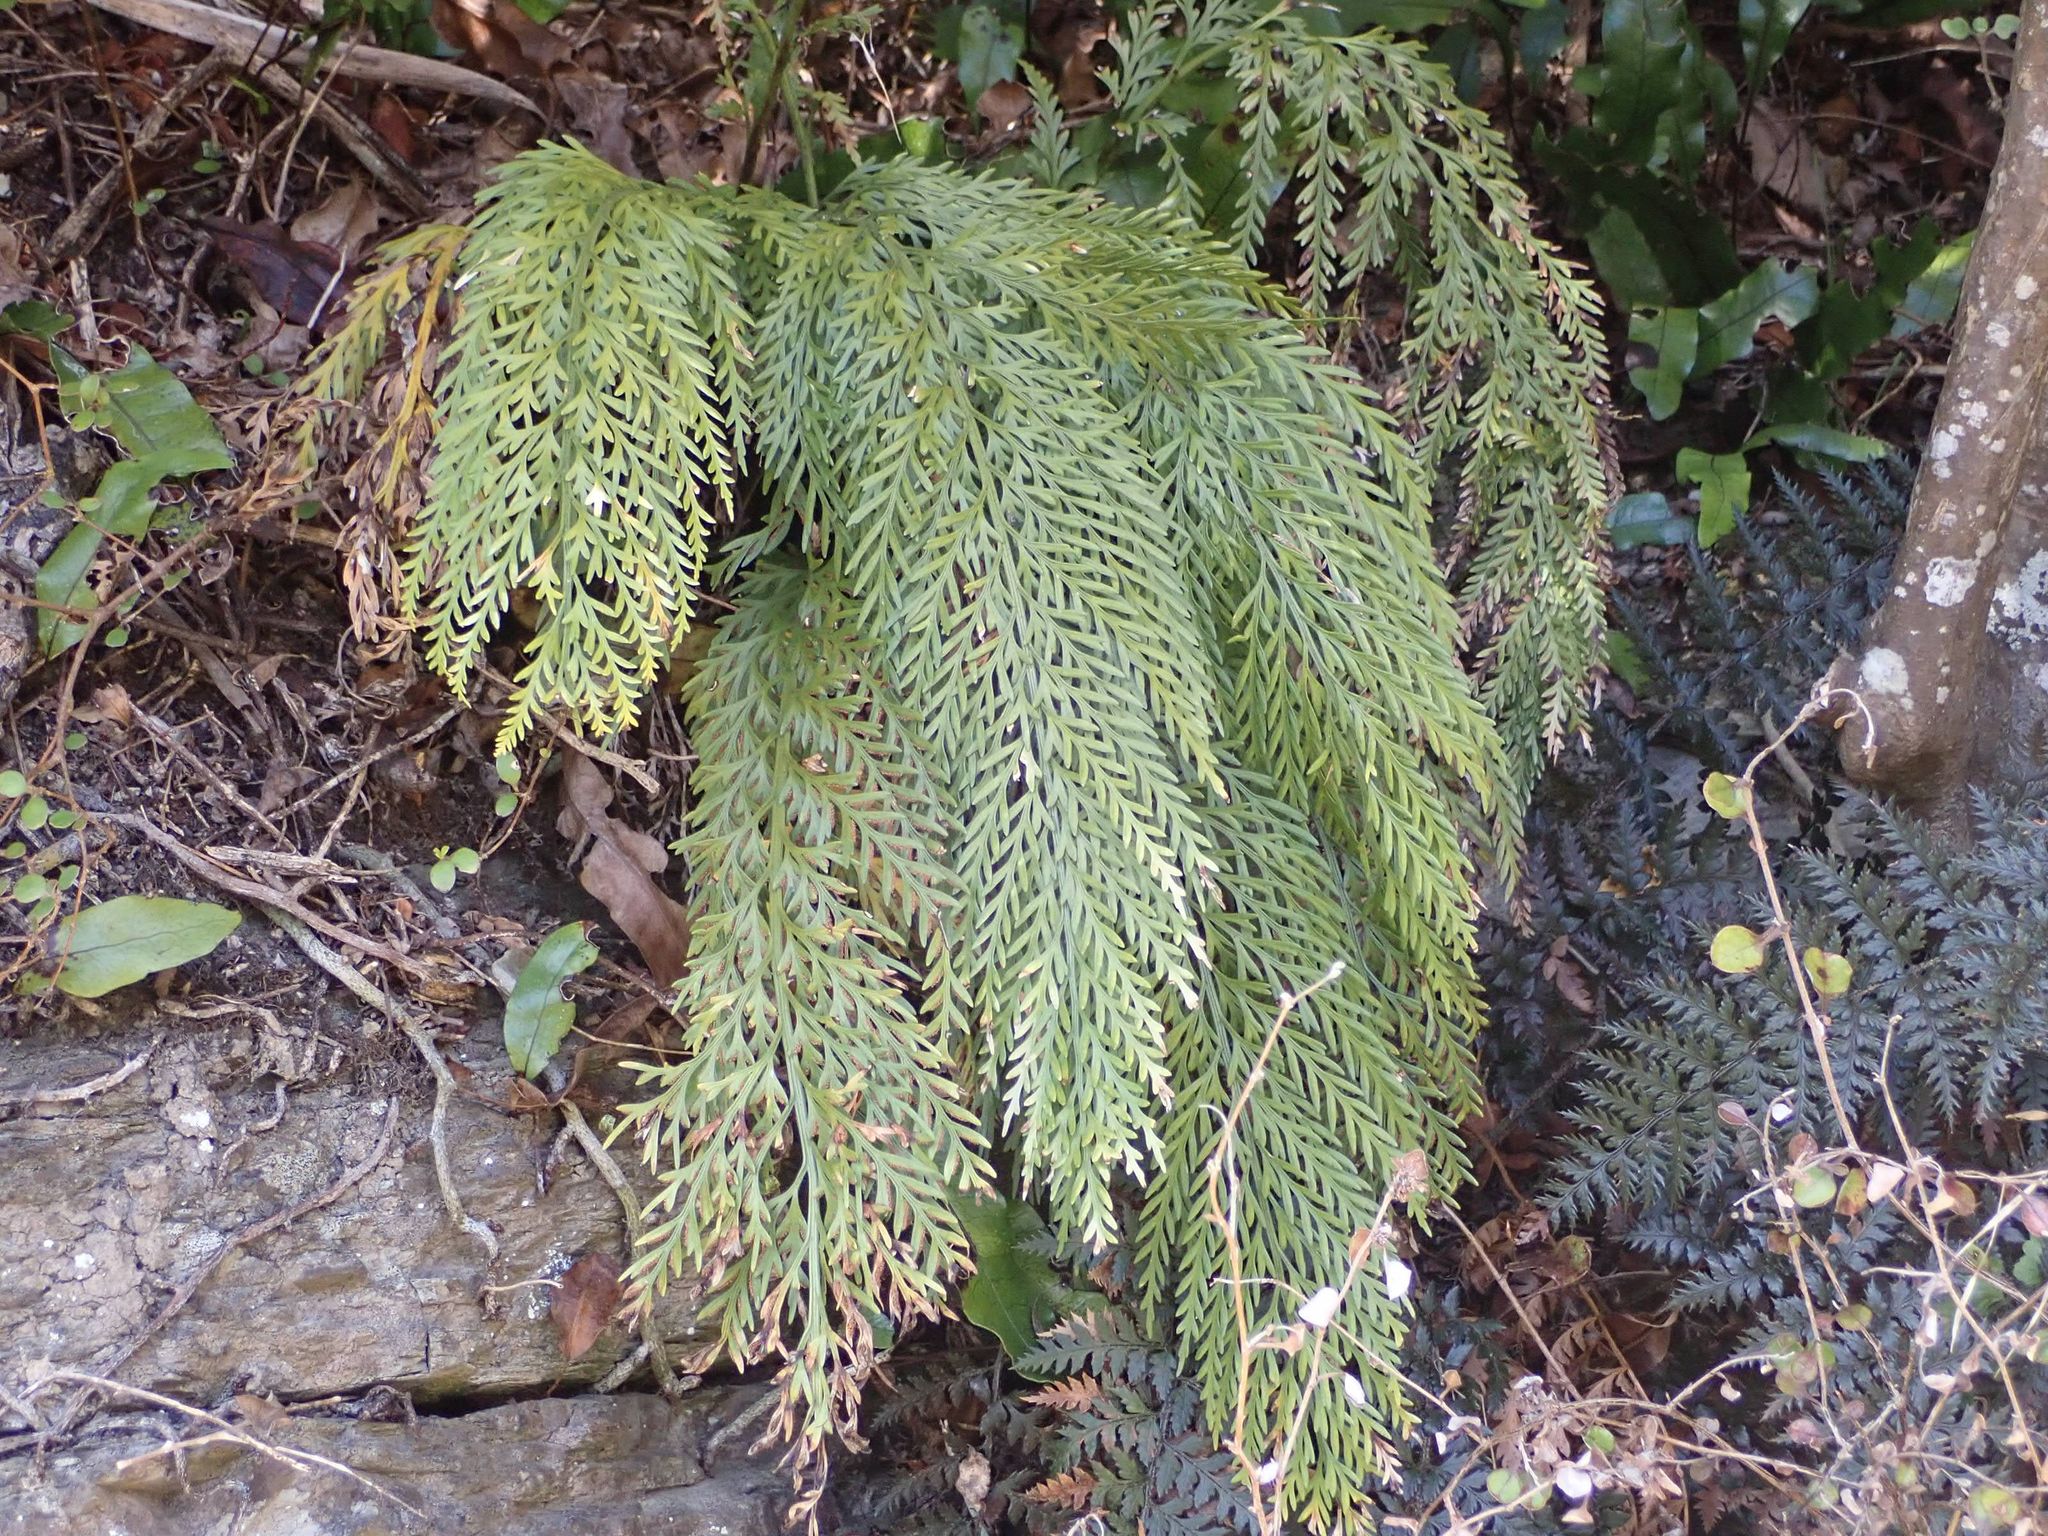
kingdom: Plantae
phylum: Tracheophyta
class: Polypodiopsida
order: Polypodiales
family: Aspleniaceae
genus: Asplenium
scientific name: Asplenium appendiculatum
